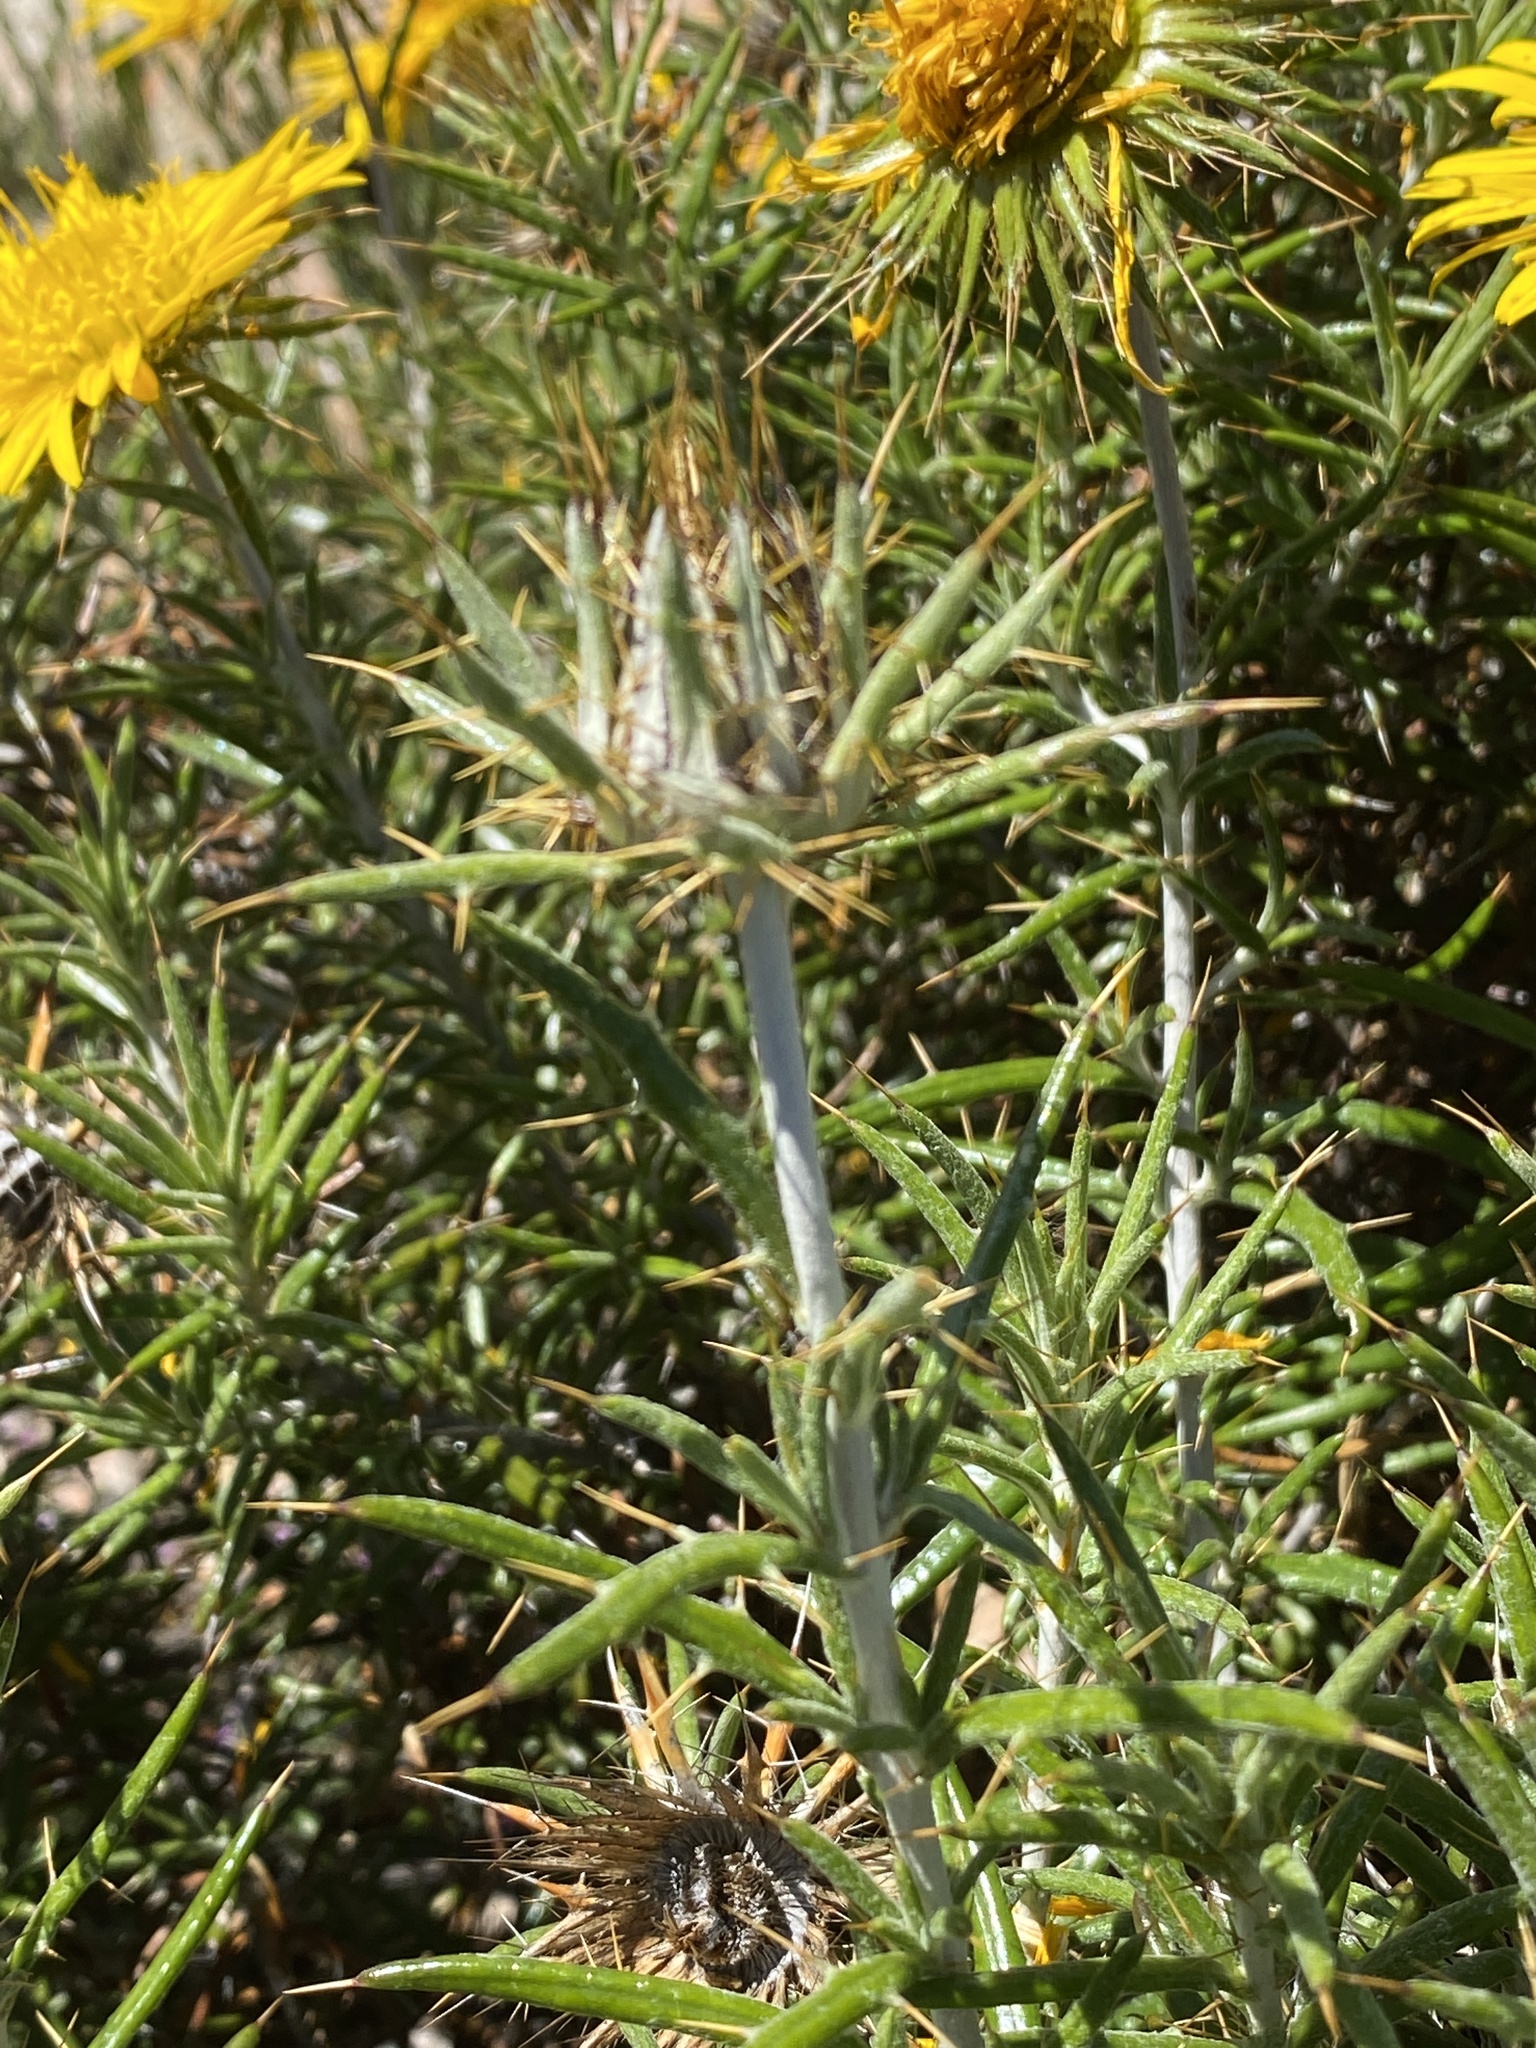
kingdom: Plantae
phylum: Tracheophyta
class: Magnoliopsida
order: Asterales
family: Asteraceae
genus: Berkheya
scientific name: Berkheya angustifolia
